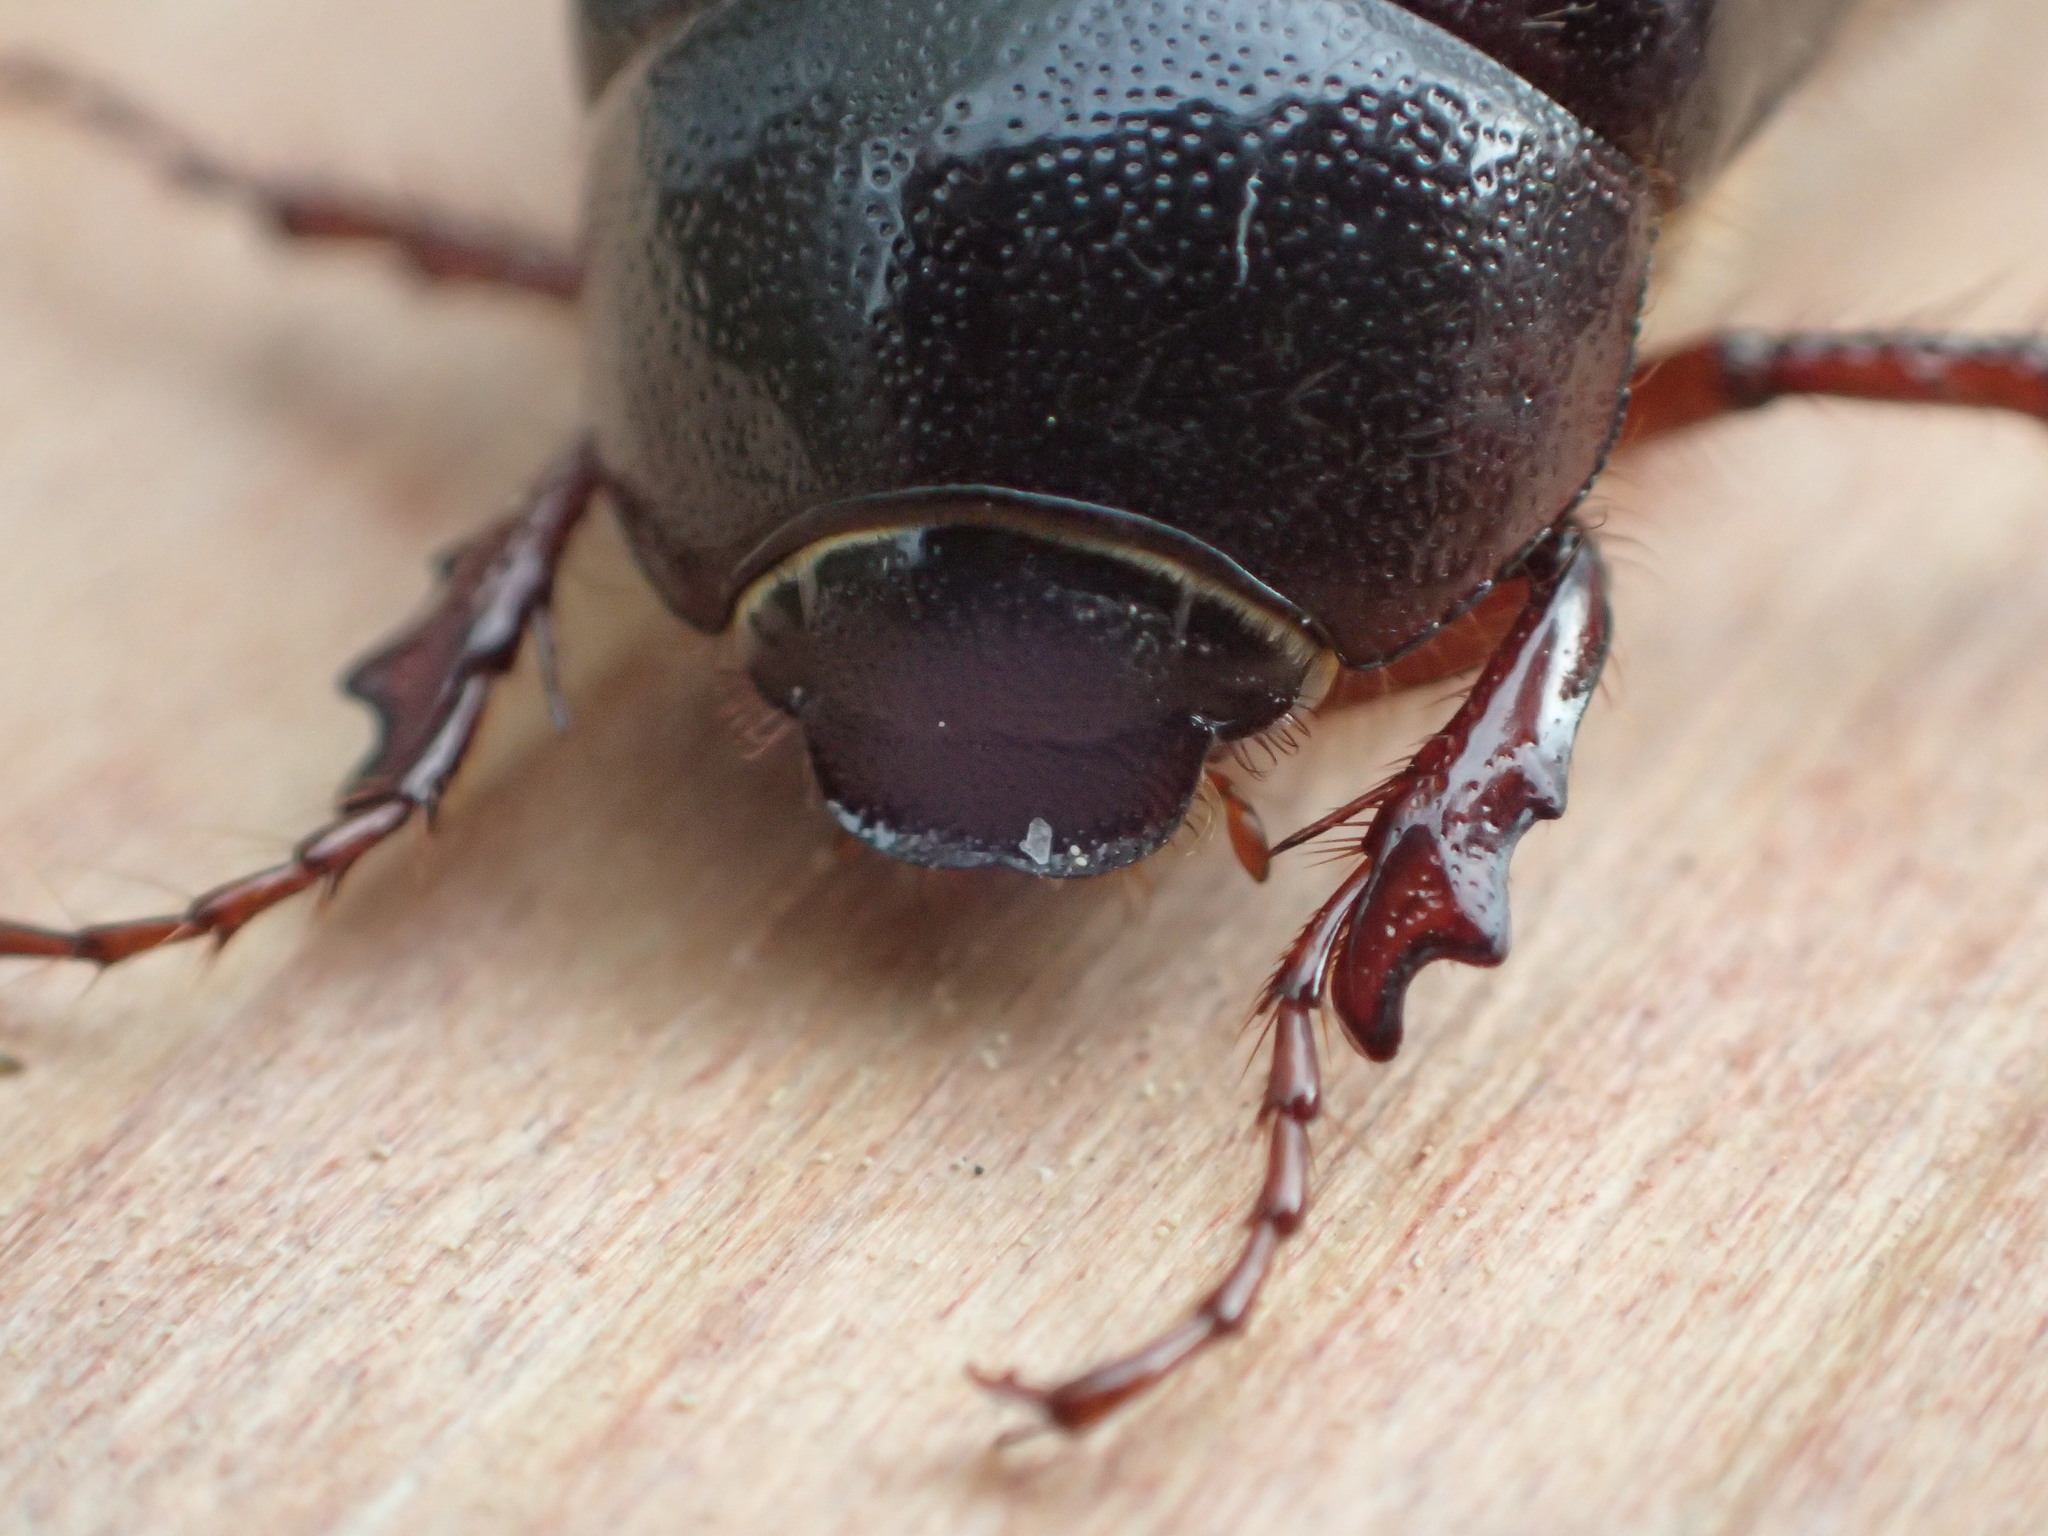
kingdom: Animalia
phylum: Arthropoda
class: Insecta
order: Coleoptera
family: Scarabaeidae
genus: Phyllophaga
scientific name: Phyllophaga anxia
